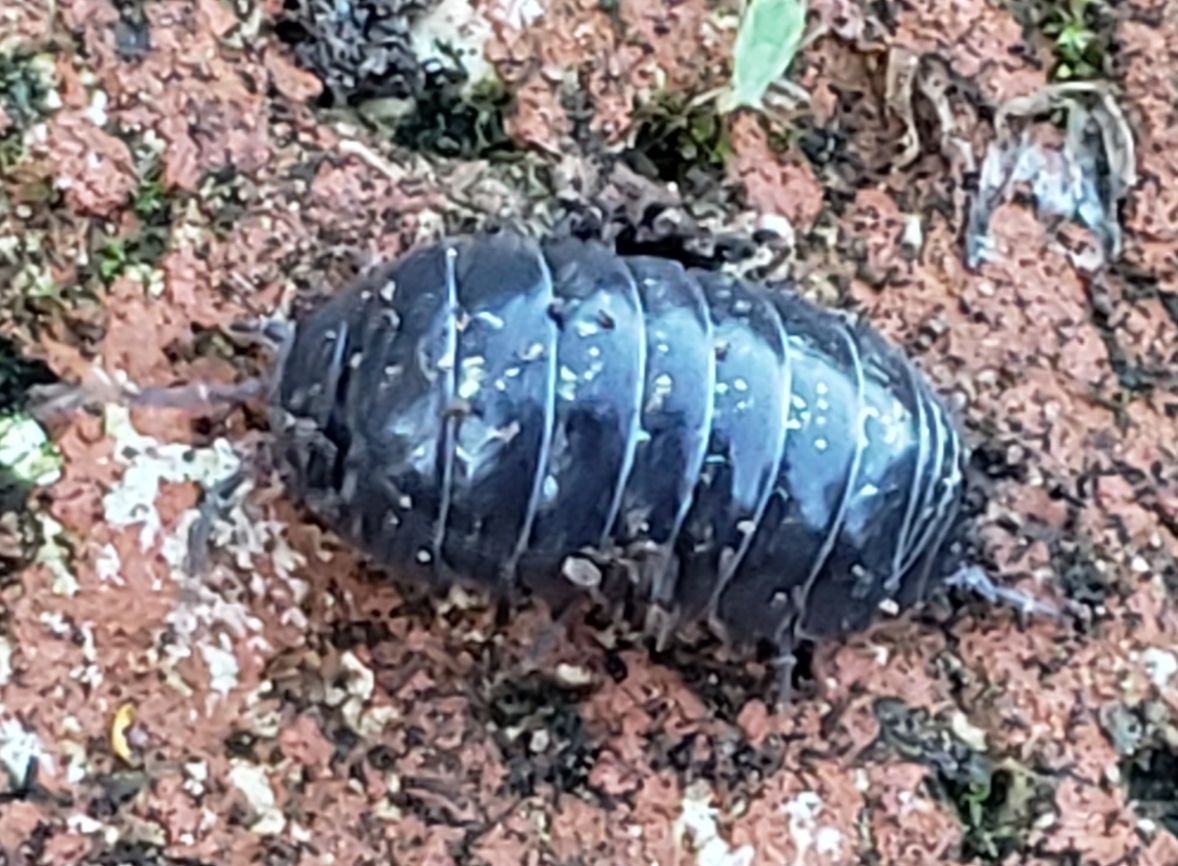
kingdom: Animalia
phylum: Arthropoda
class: Malacostraca
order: Isopoda
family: Armadillidiidae
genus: Armadillidium
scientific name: Armadillidium vulgare
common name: Common pill woodlouse
